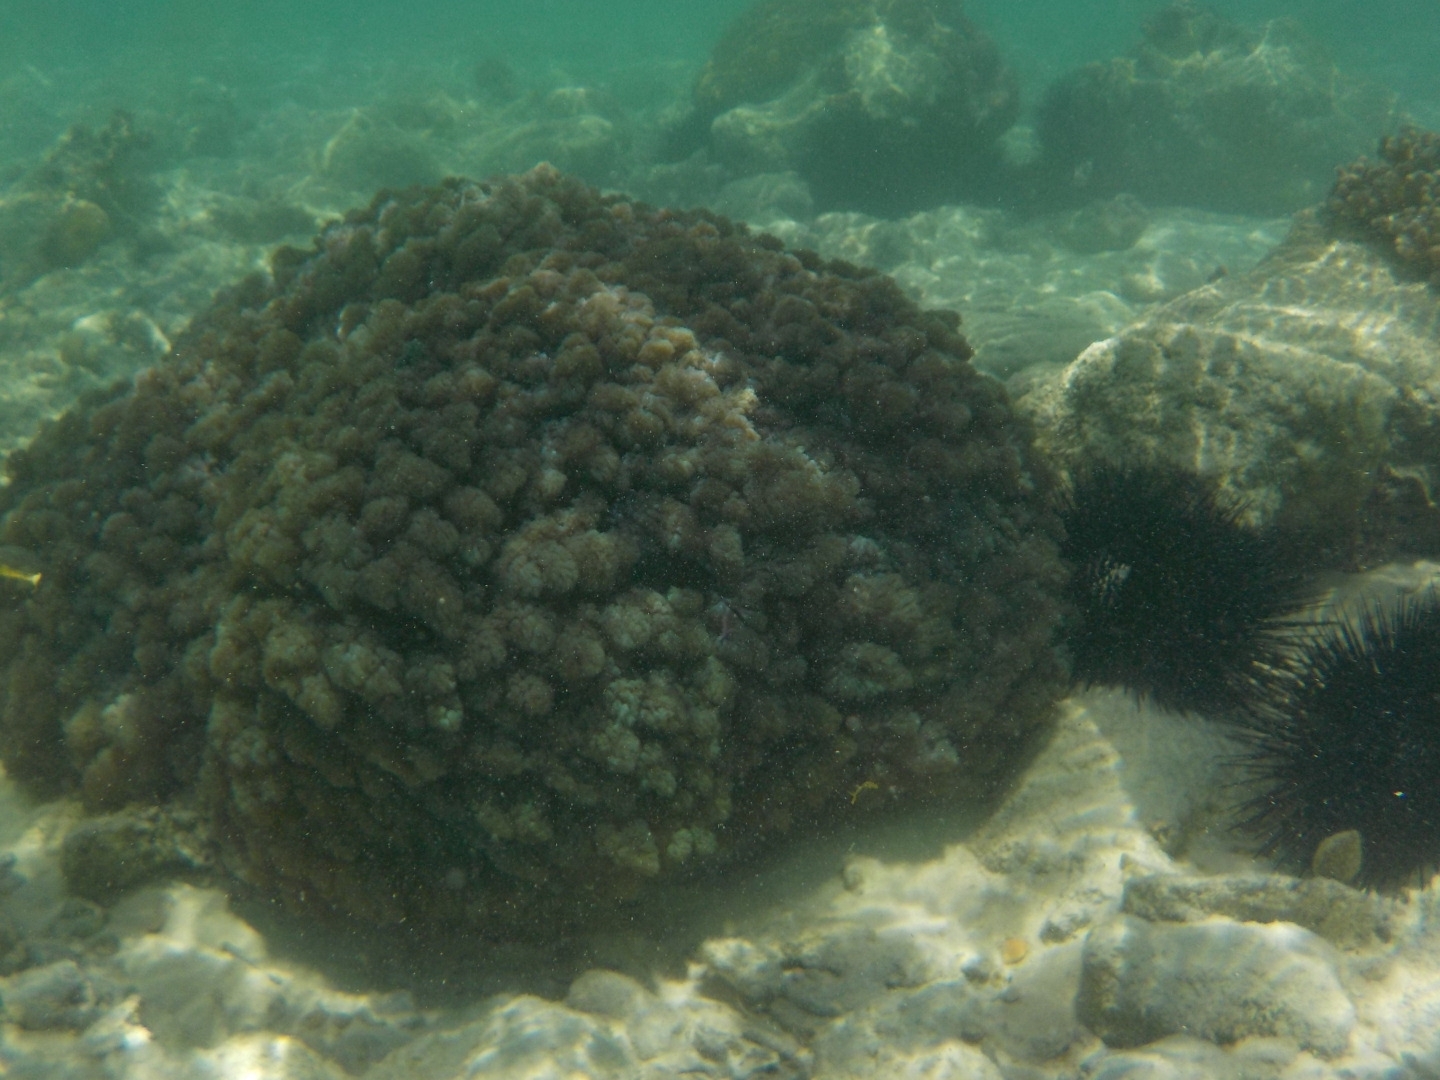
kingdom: Animalia
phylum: Cnidaria
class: Anthozoa
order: Malacalcyonacea
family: Xeniidae
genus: Conglomeratusclera
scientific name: Conglomeratusclera coerulea
